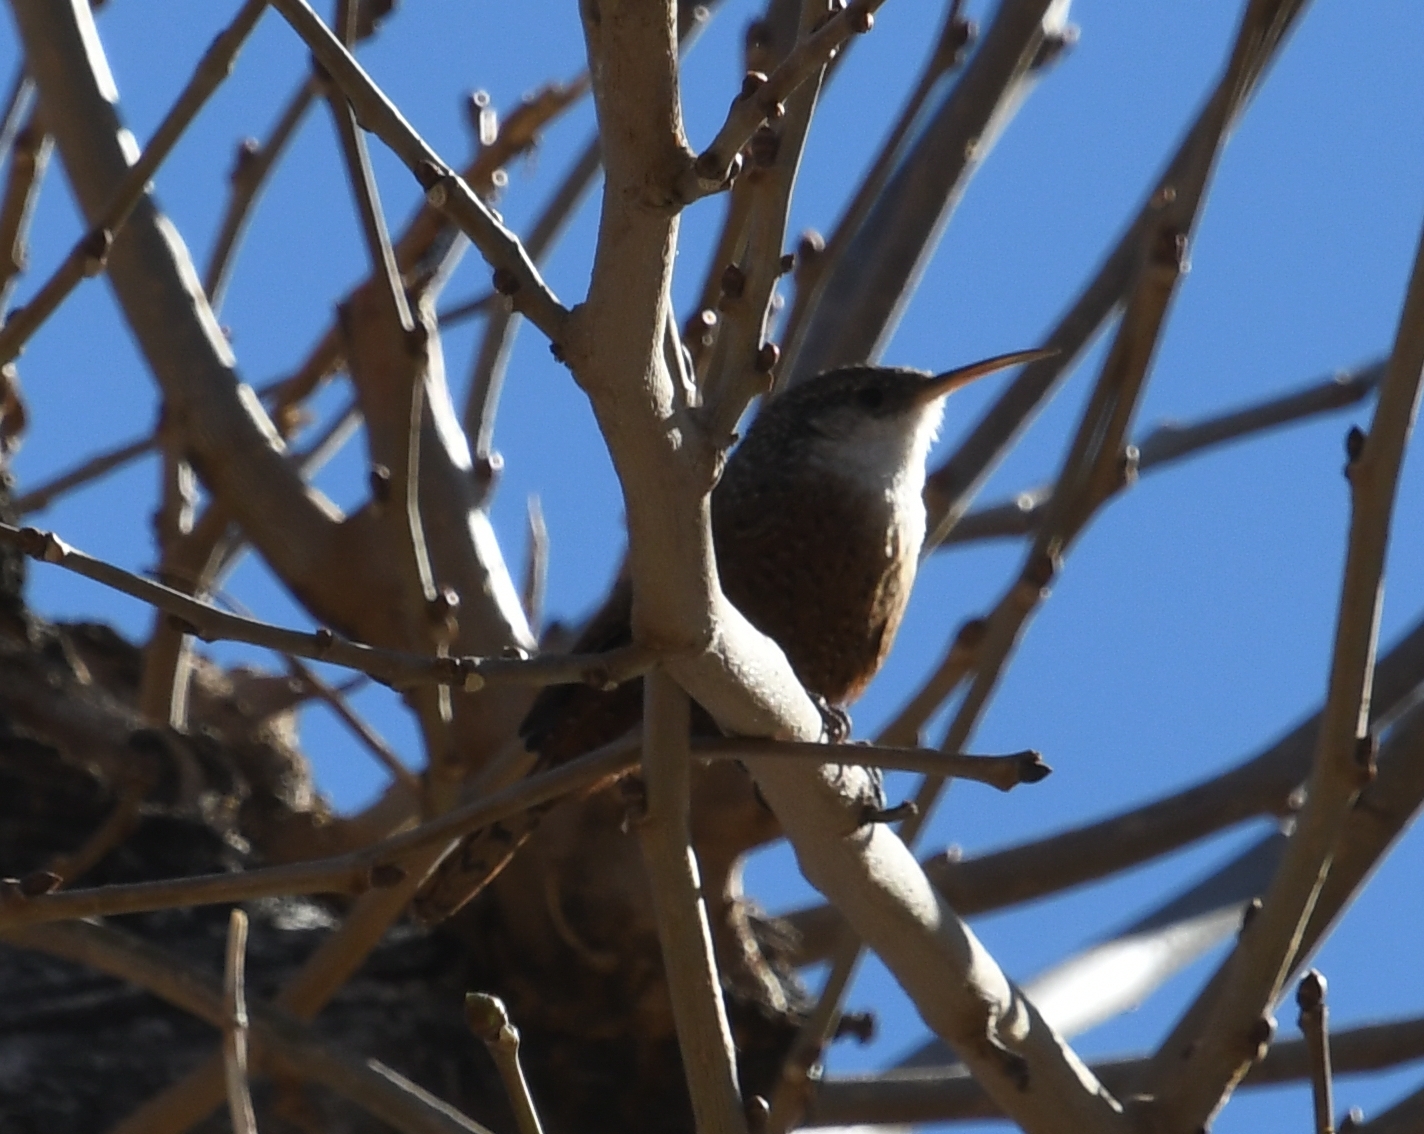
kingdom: Animalia
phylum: Chordata
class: Aves
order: Passeriformes
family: Troglodytidae
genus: Catherpes
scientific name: Catherpes mexicanus
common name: Canyon wren
